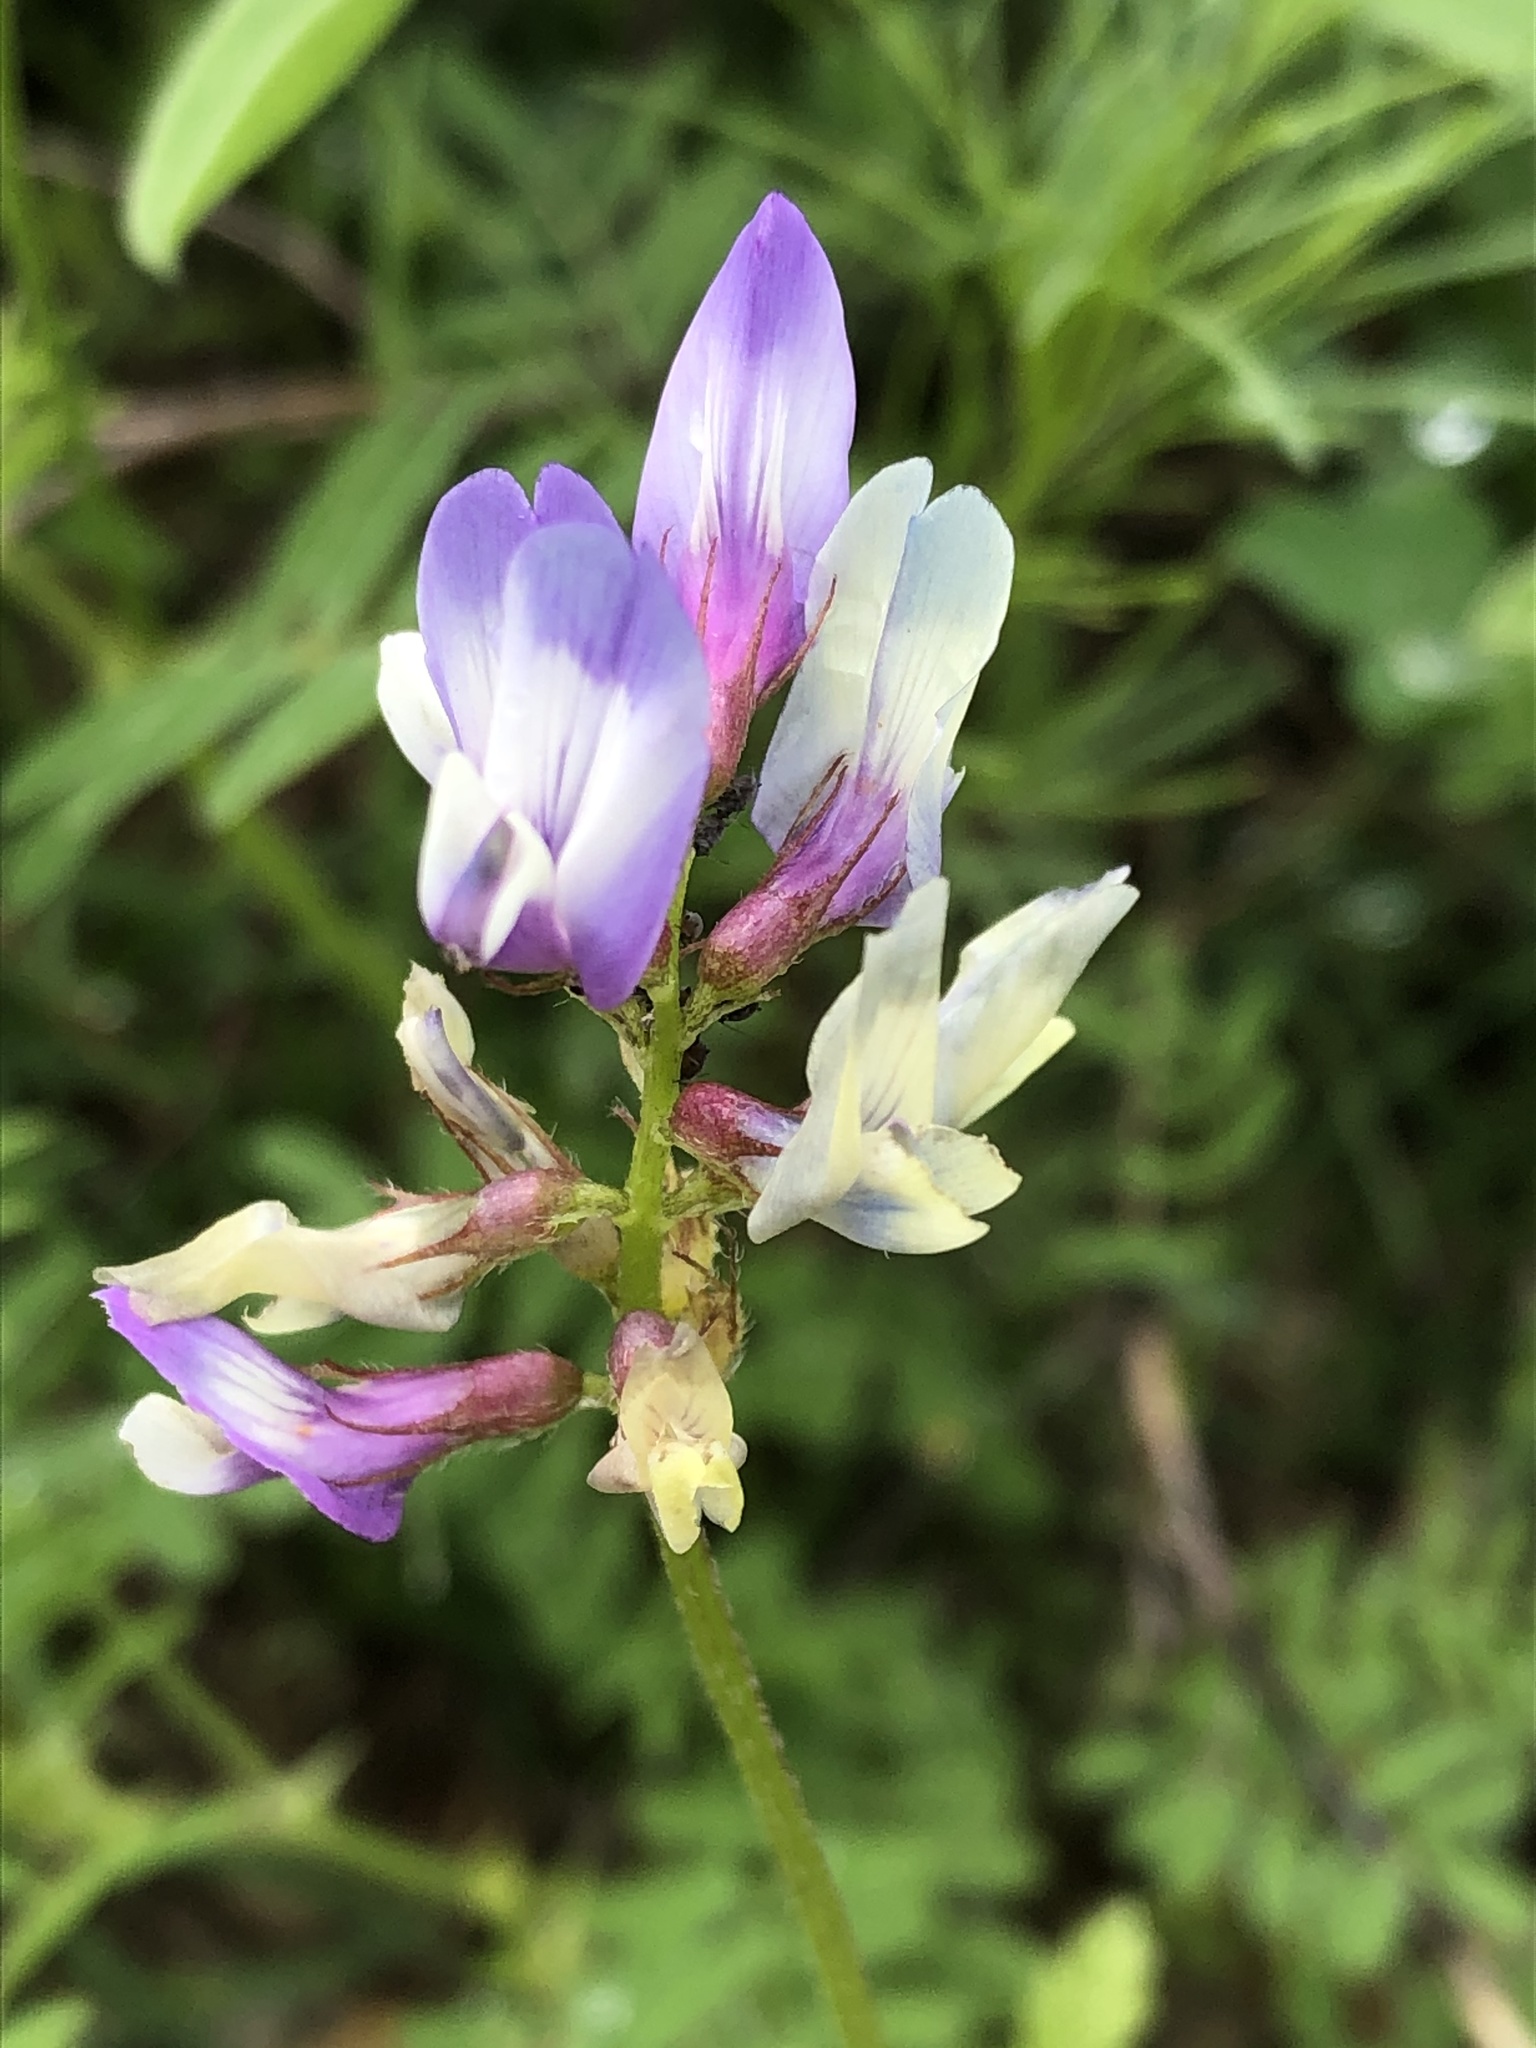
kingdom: Plantae
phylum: Tracheophyta
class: Magnoliopsida
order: Fabales
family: Fabaceae
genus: Astragalus
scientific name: Astragalus nuttallianus
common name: Smallflowered milkvetch
